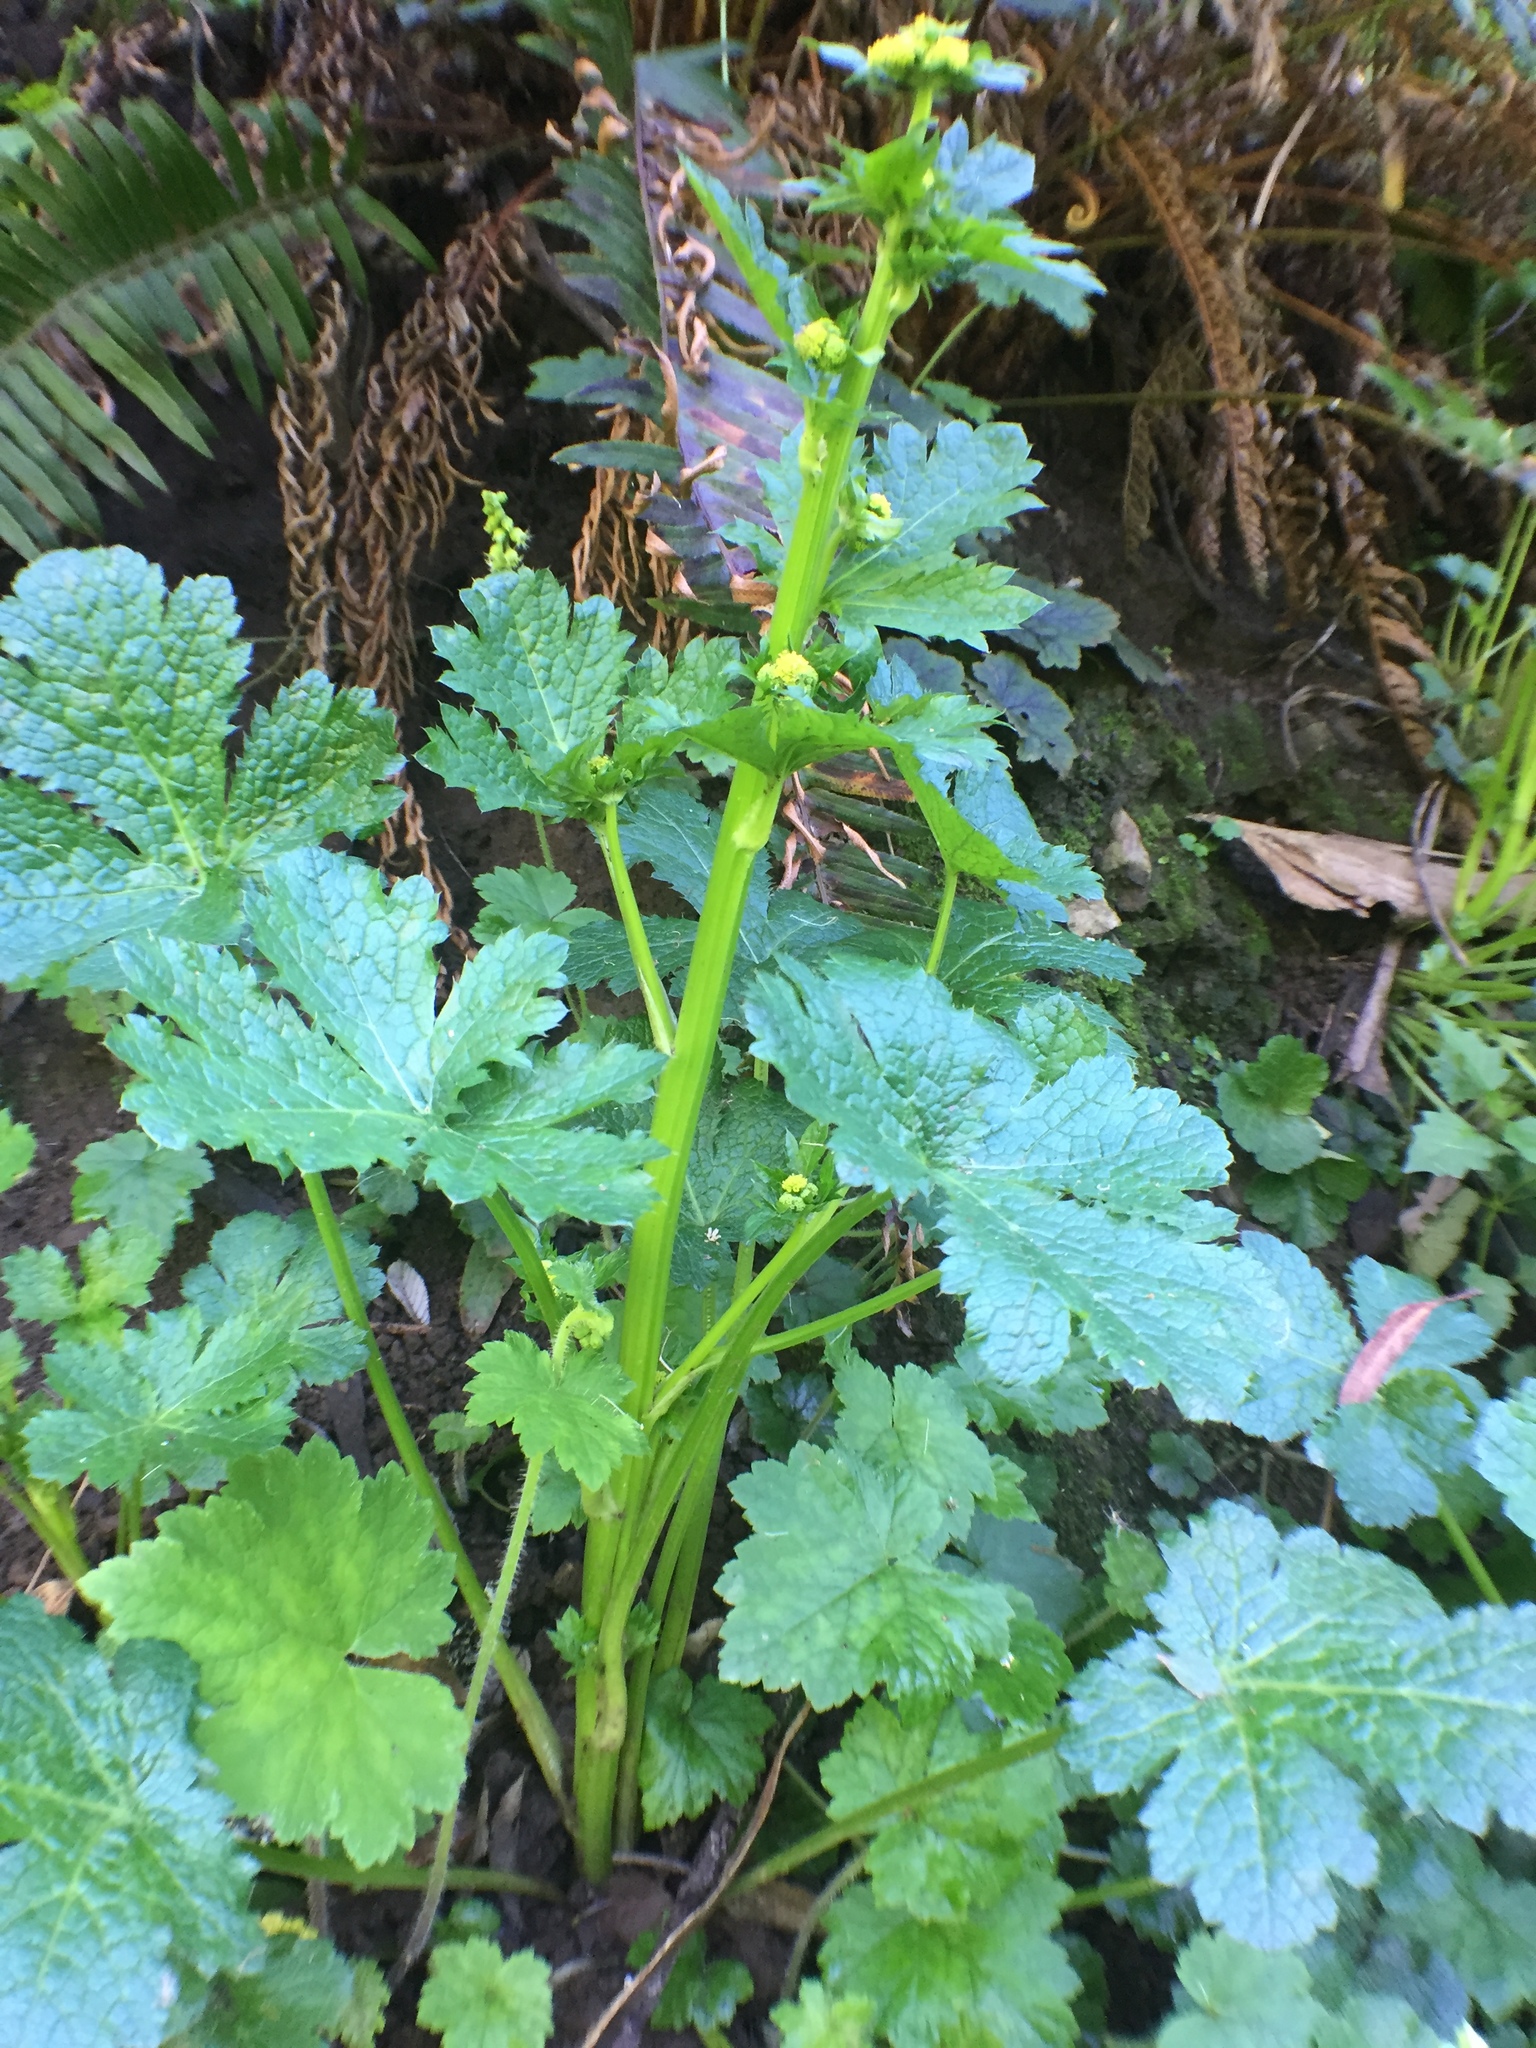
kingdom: Plantae
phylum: Tracheophyta
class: Magnoliopsida
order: Apiales
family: Apiaceae
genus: Sanicula
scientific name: Sanicula crassicaulis
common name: Western snakeroot
